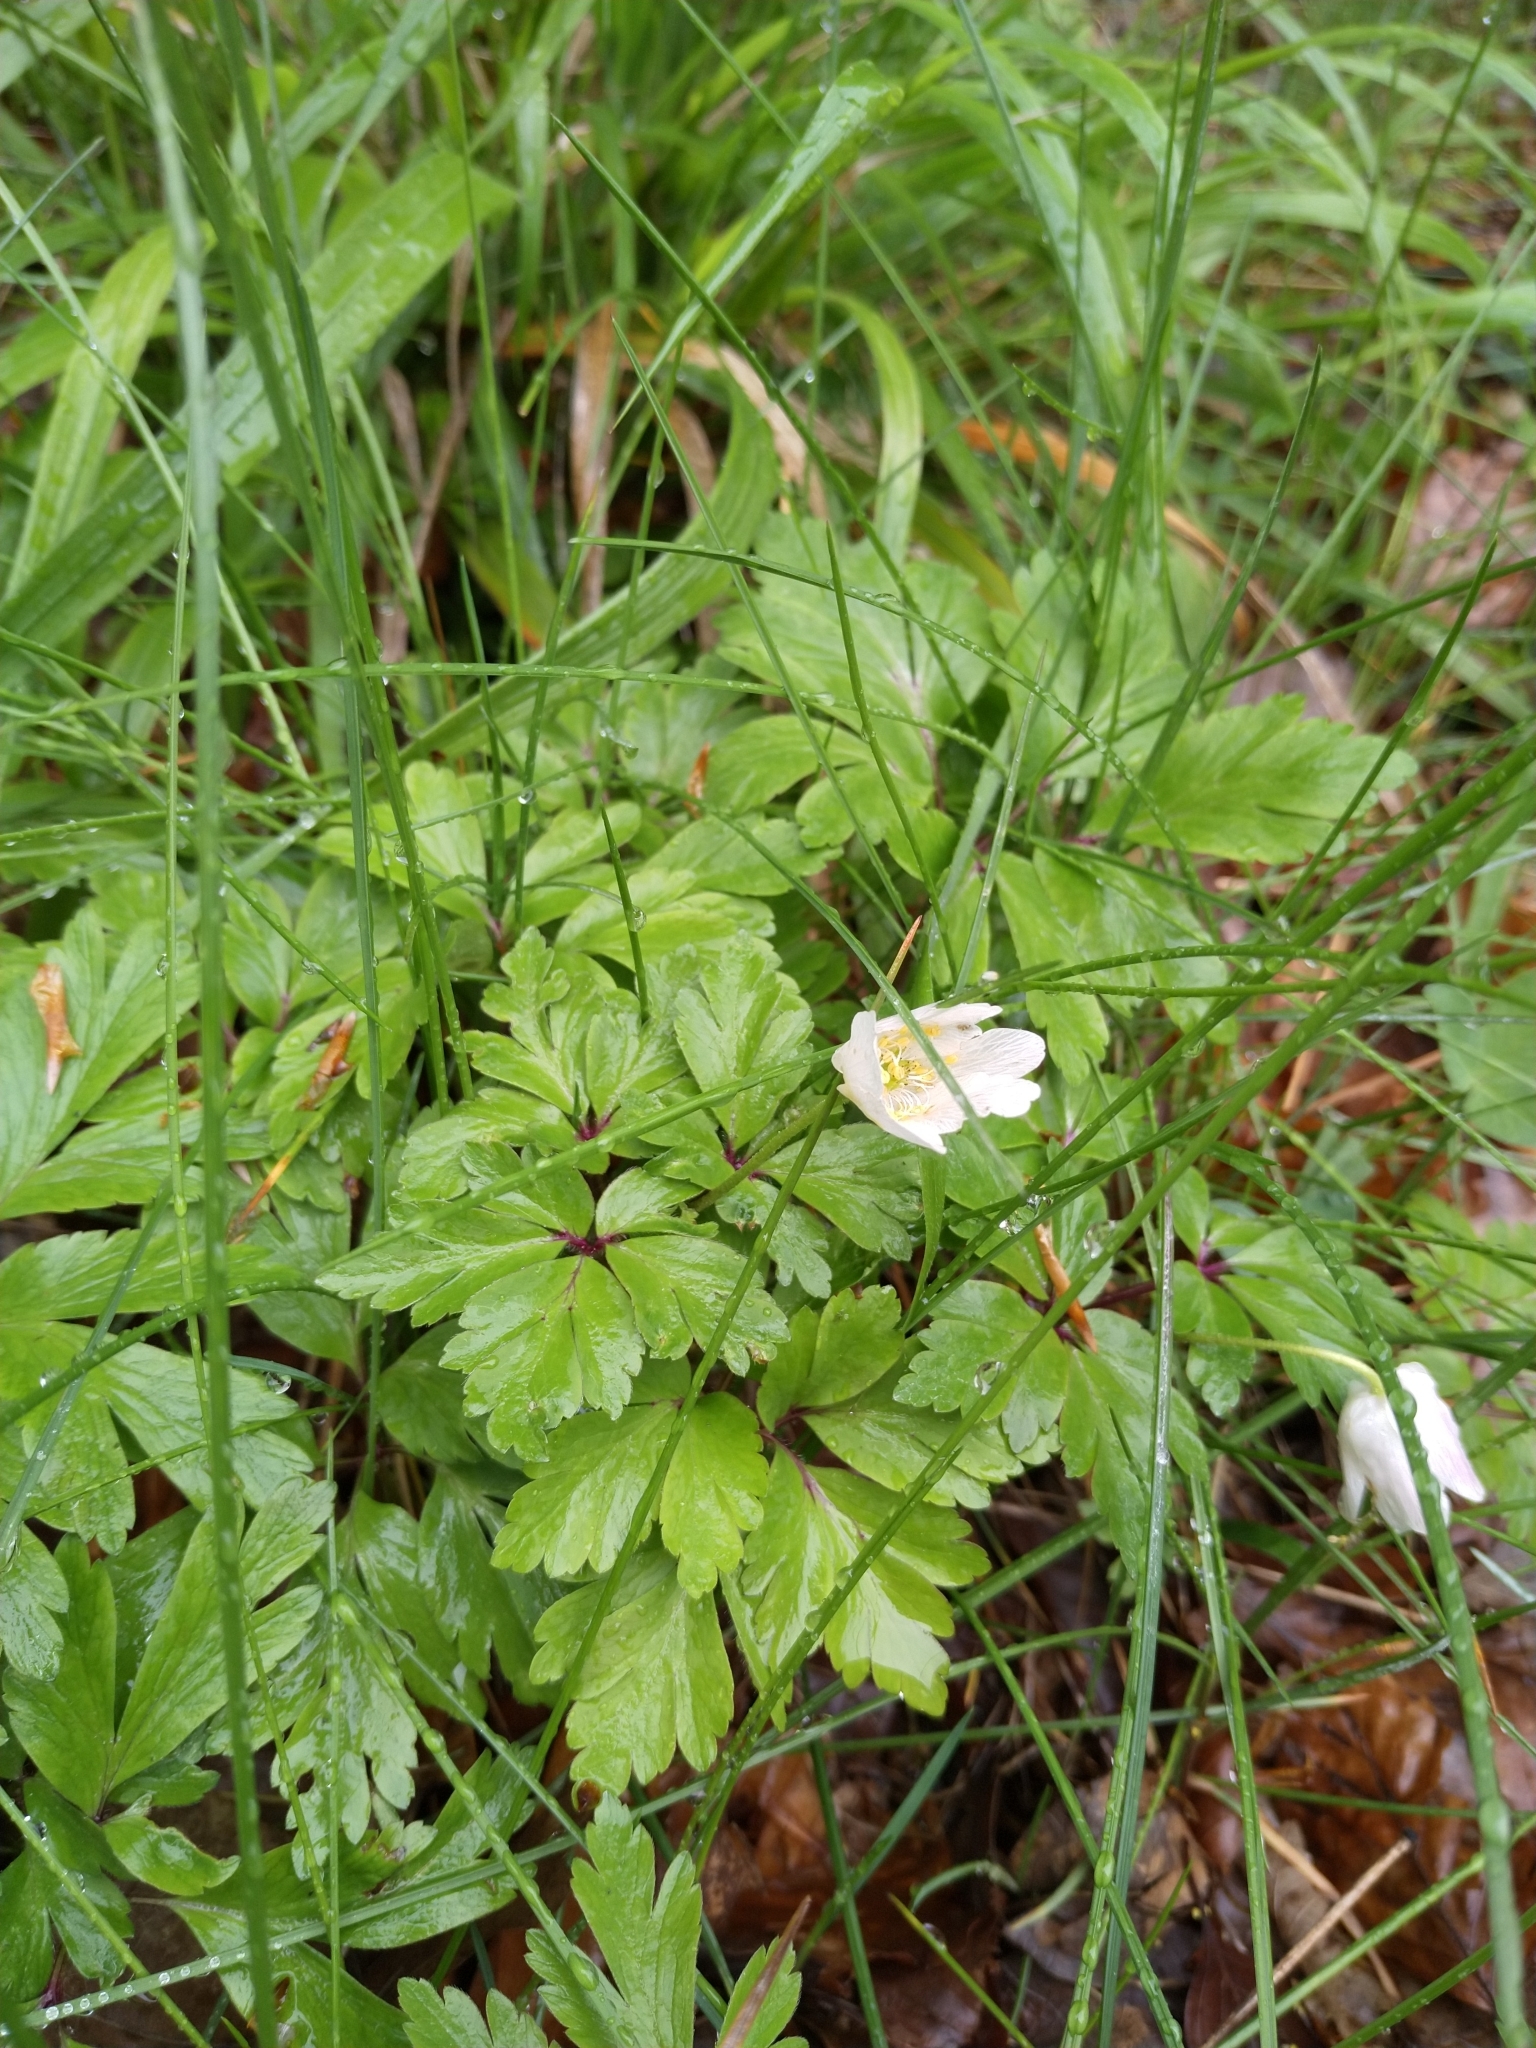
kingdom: Plantae
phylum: Tracheophyta
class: Magnoliopsida
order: Ranunculales
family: Ranunculaceae
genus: Anemone
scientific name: Anemone nemorosa
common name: Wood anemone
